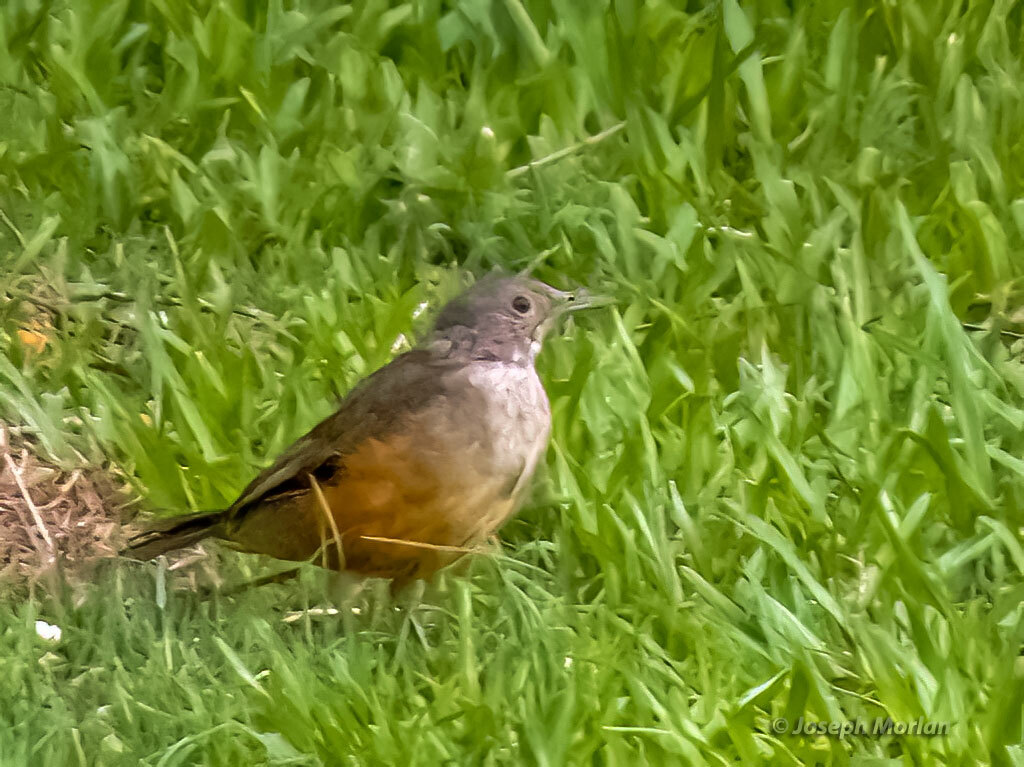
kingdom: Animalia
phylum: Chordata
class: Aves
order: Passeriformes
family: Turdidae
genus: Turdus
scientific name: Turdus rufiventris
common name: Rufous-bellied thrush
